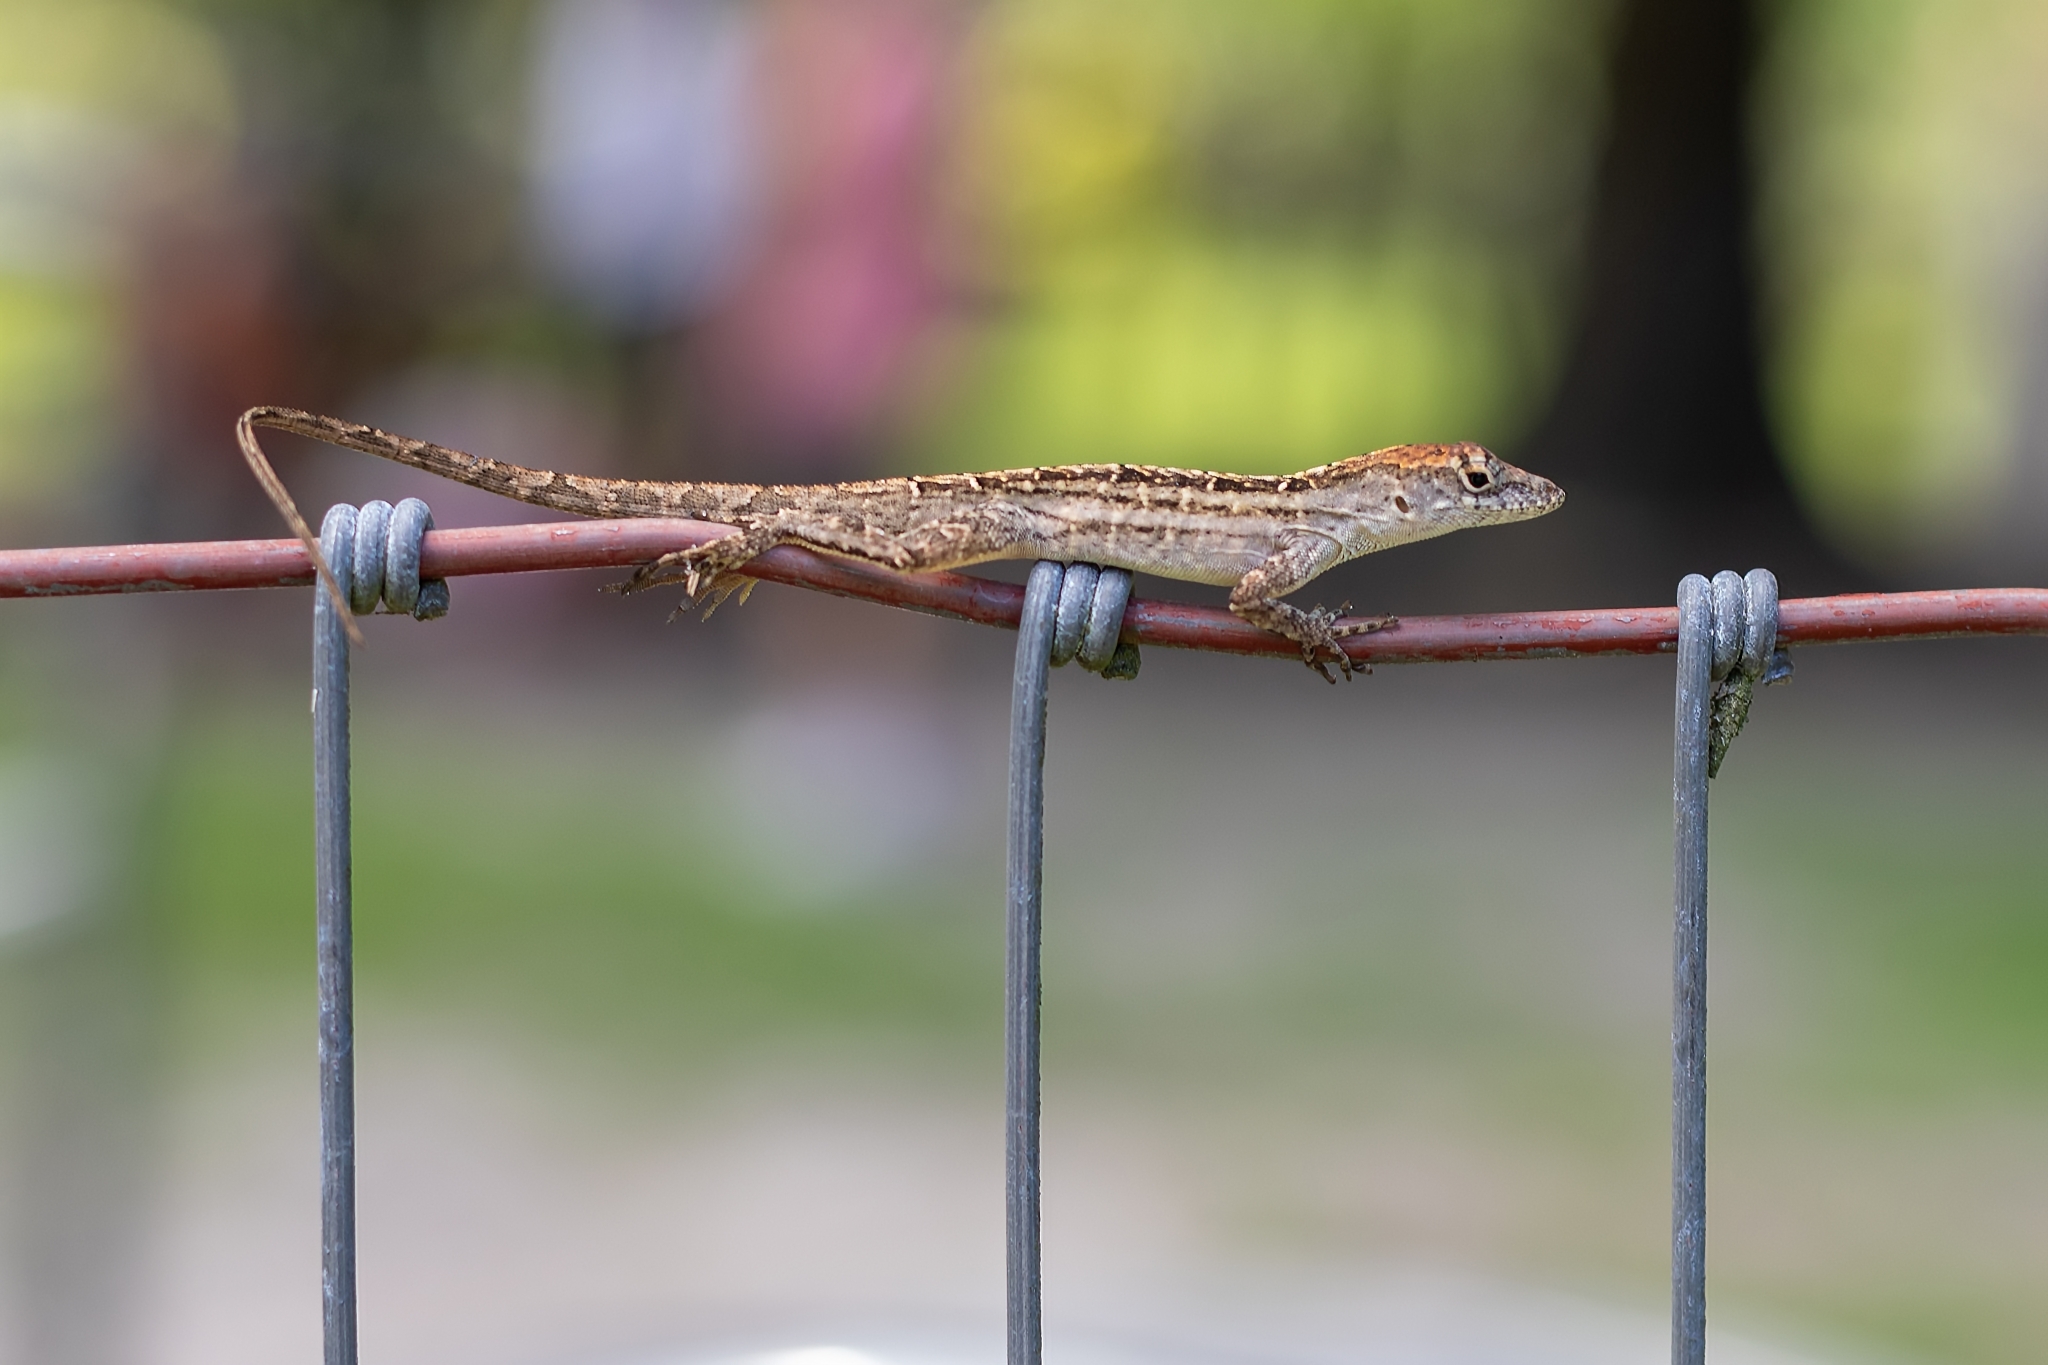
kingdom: Animalia
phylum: Chordata
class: Squamata
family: Dactyloidae
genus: Anolis
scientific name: Anolis sagrei
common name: Brown anole
